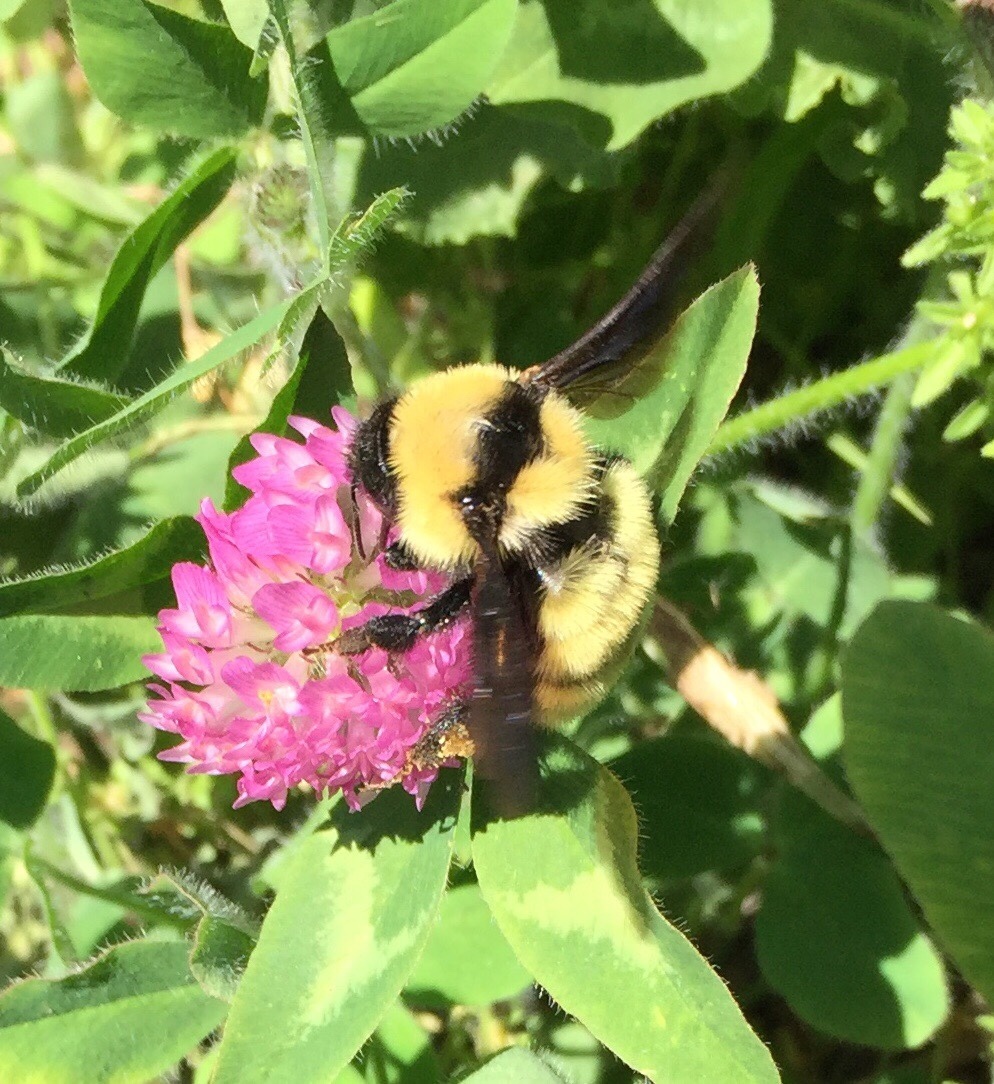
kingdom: Animalia
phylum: Arthropoda
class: Insecta
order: Hymenoptera
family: Apidae
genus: Bombus
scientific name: Bombus fervidus
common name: Yellow bumble bee
